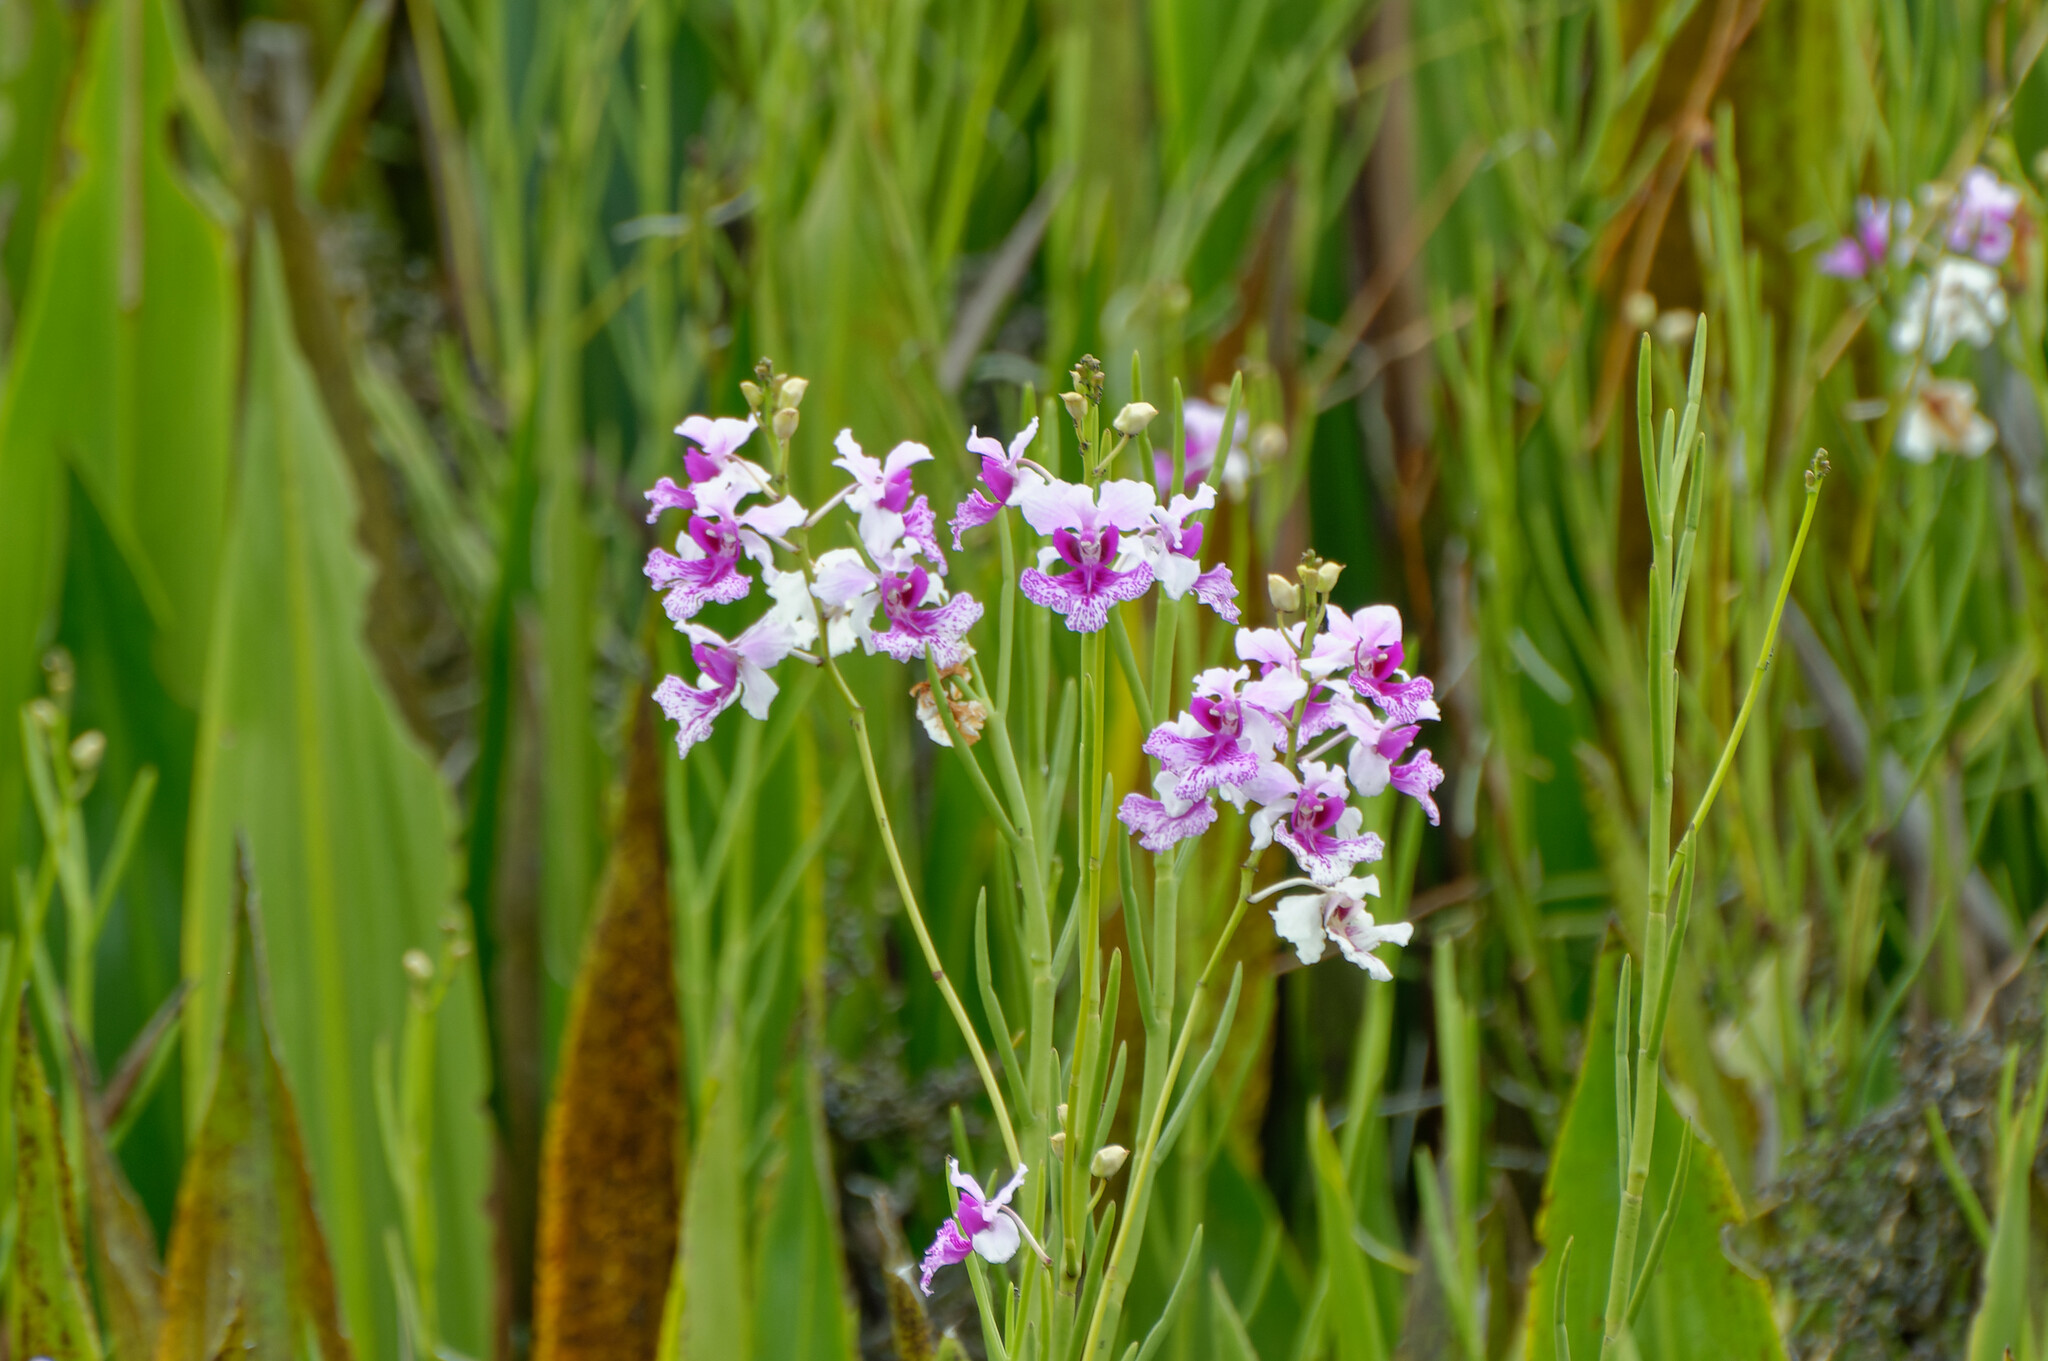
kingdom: Plantae
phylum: Tracheophyta
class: Liliopsida
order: Asparagales
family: Orchidaceae
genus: Papilionanthe
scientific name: Papilionanthe hookeriana
